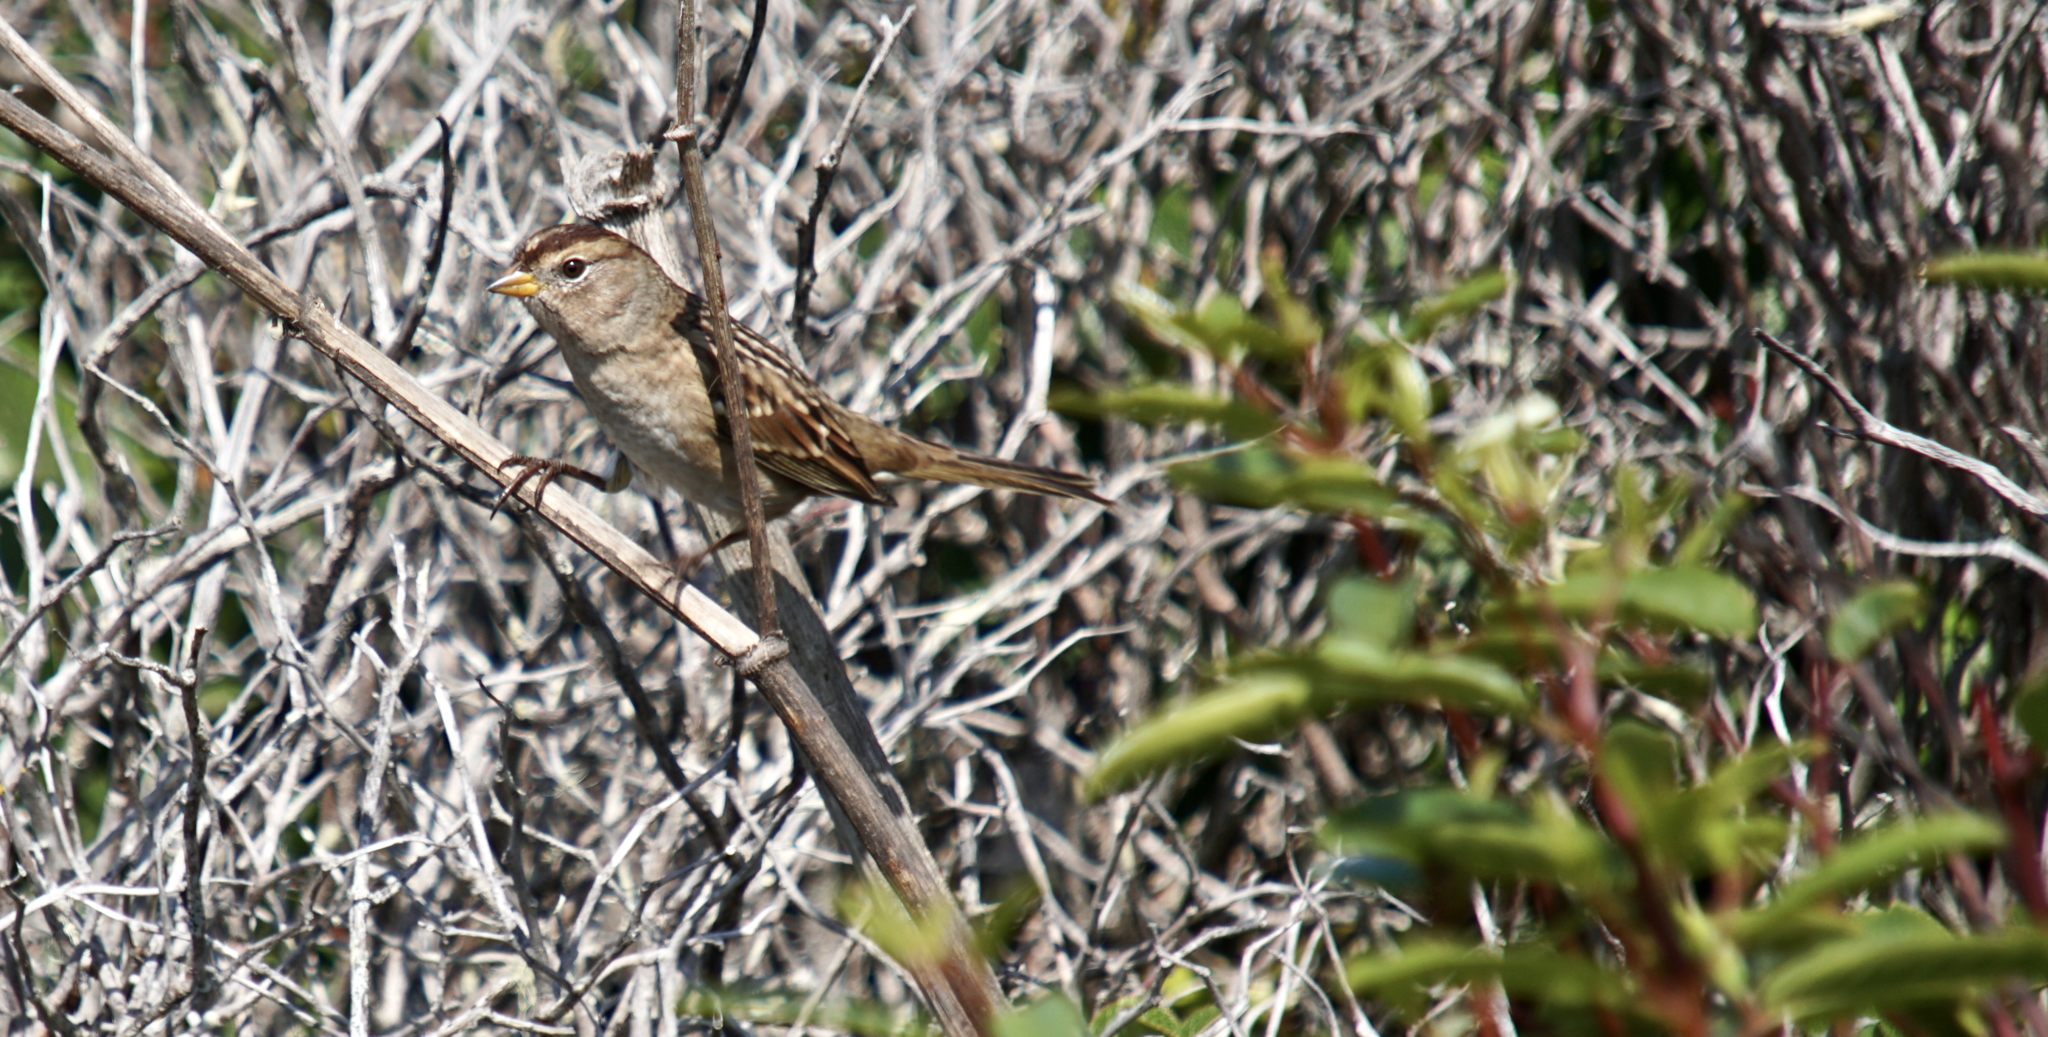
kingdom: Animalia
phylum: Chordata
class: Aves
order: Passeriformes
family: Passerellidae
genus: Zonotrichia
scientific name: Zonotrichia leucophrys
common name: White-crowned sparrow
